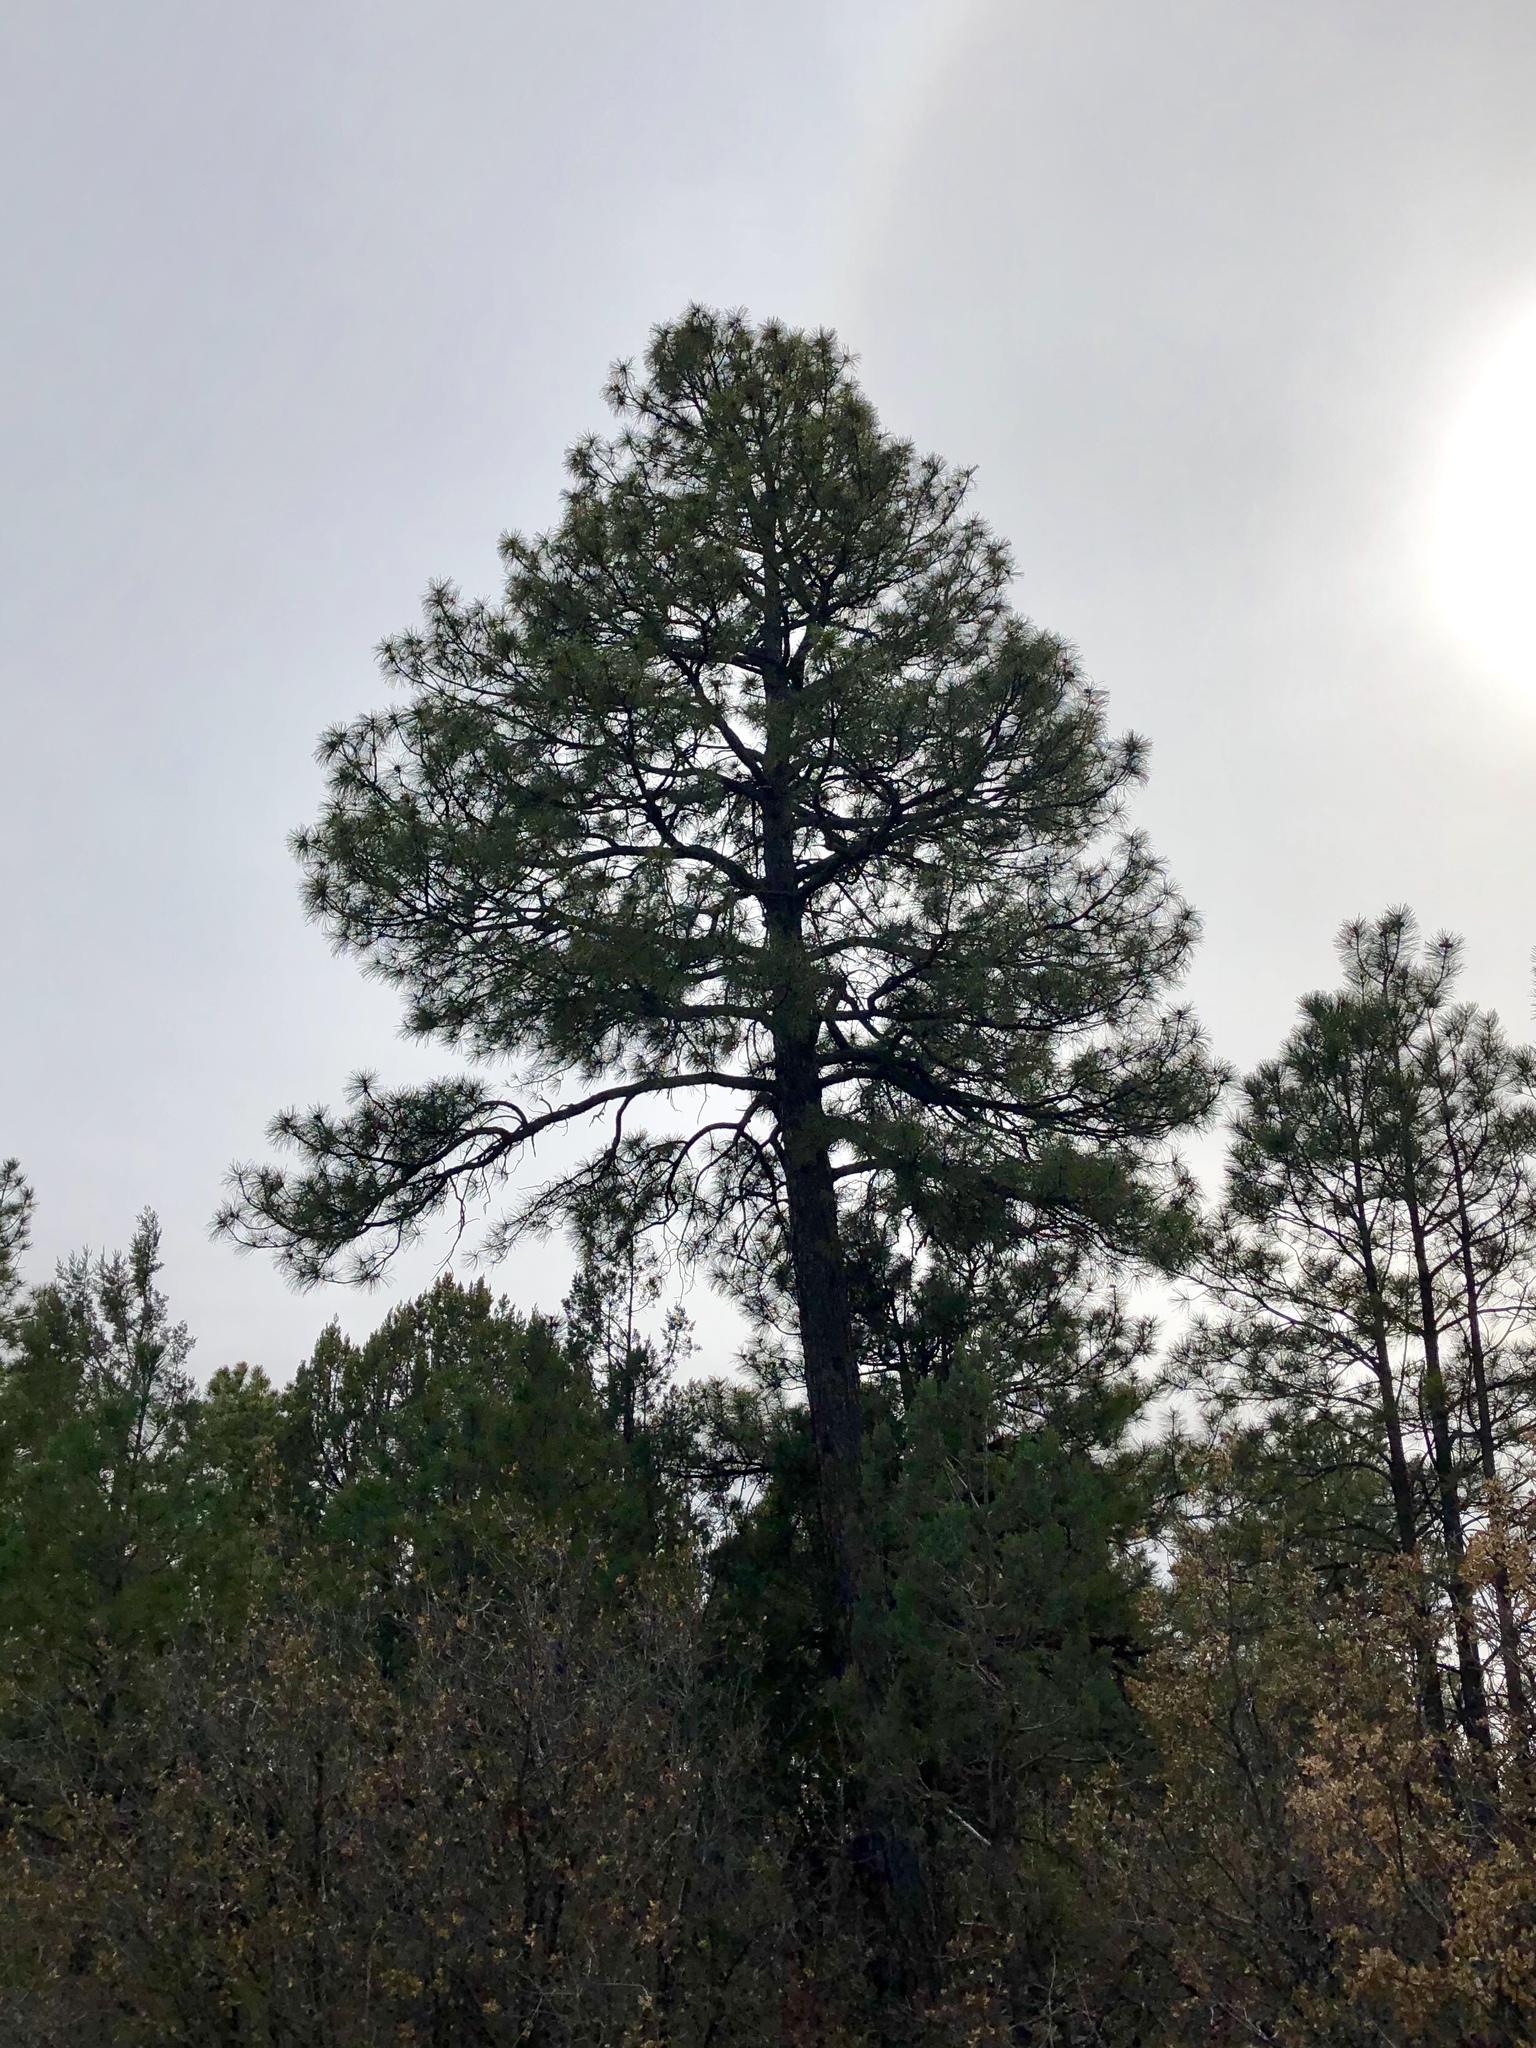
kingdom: Plantae
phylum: Tracheophyta
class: Pinopsida
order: Pinales
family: Pinaceae
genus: Pinus
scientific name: Pinus ponderosa
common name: Western yellow-pine
